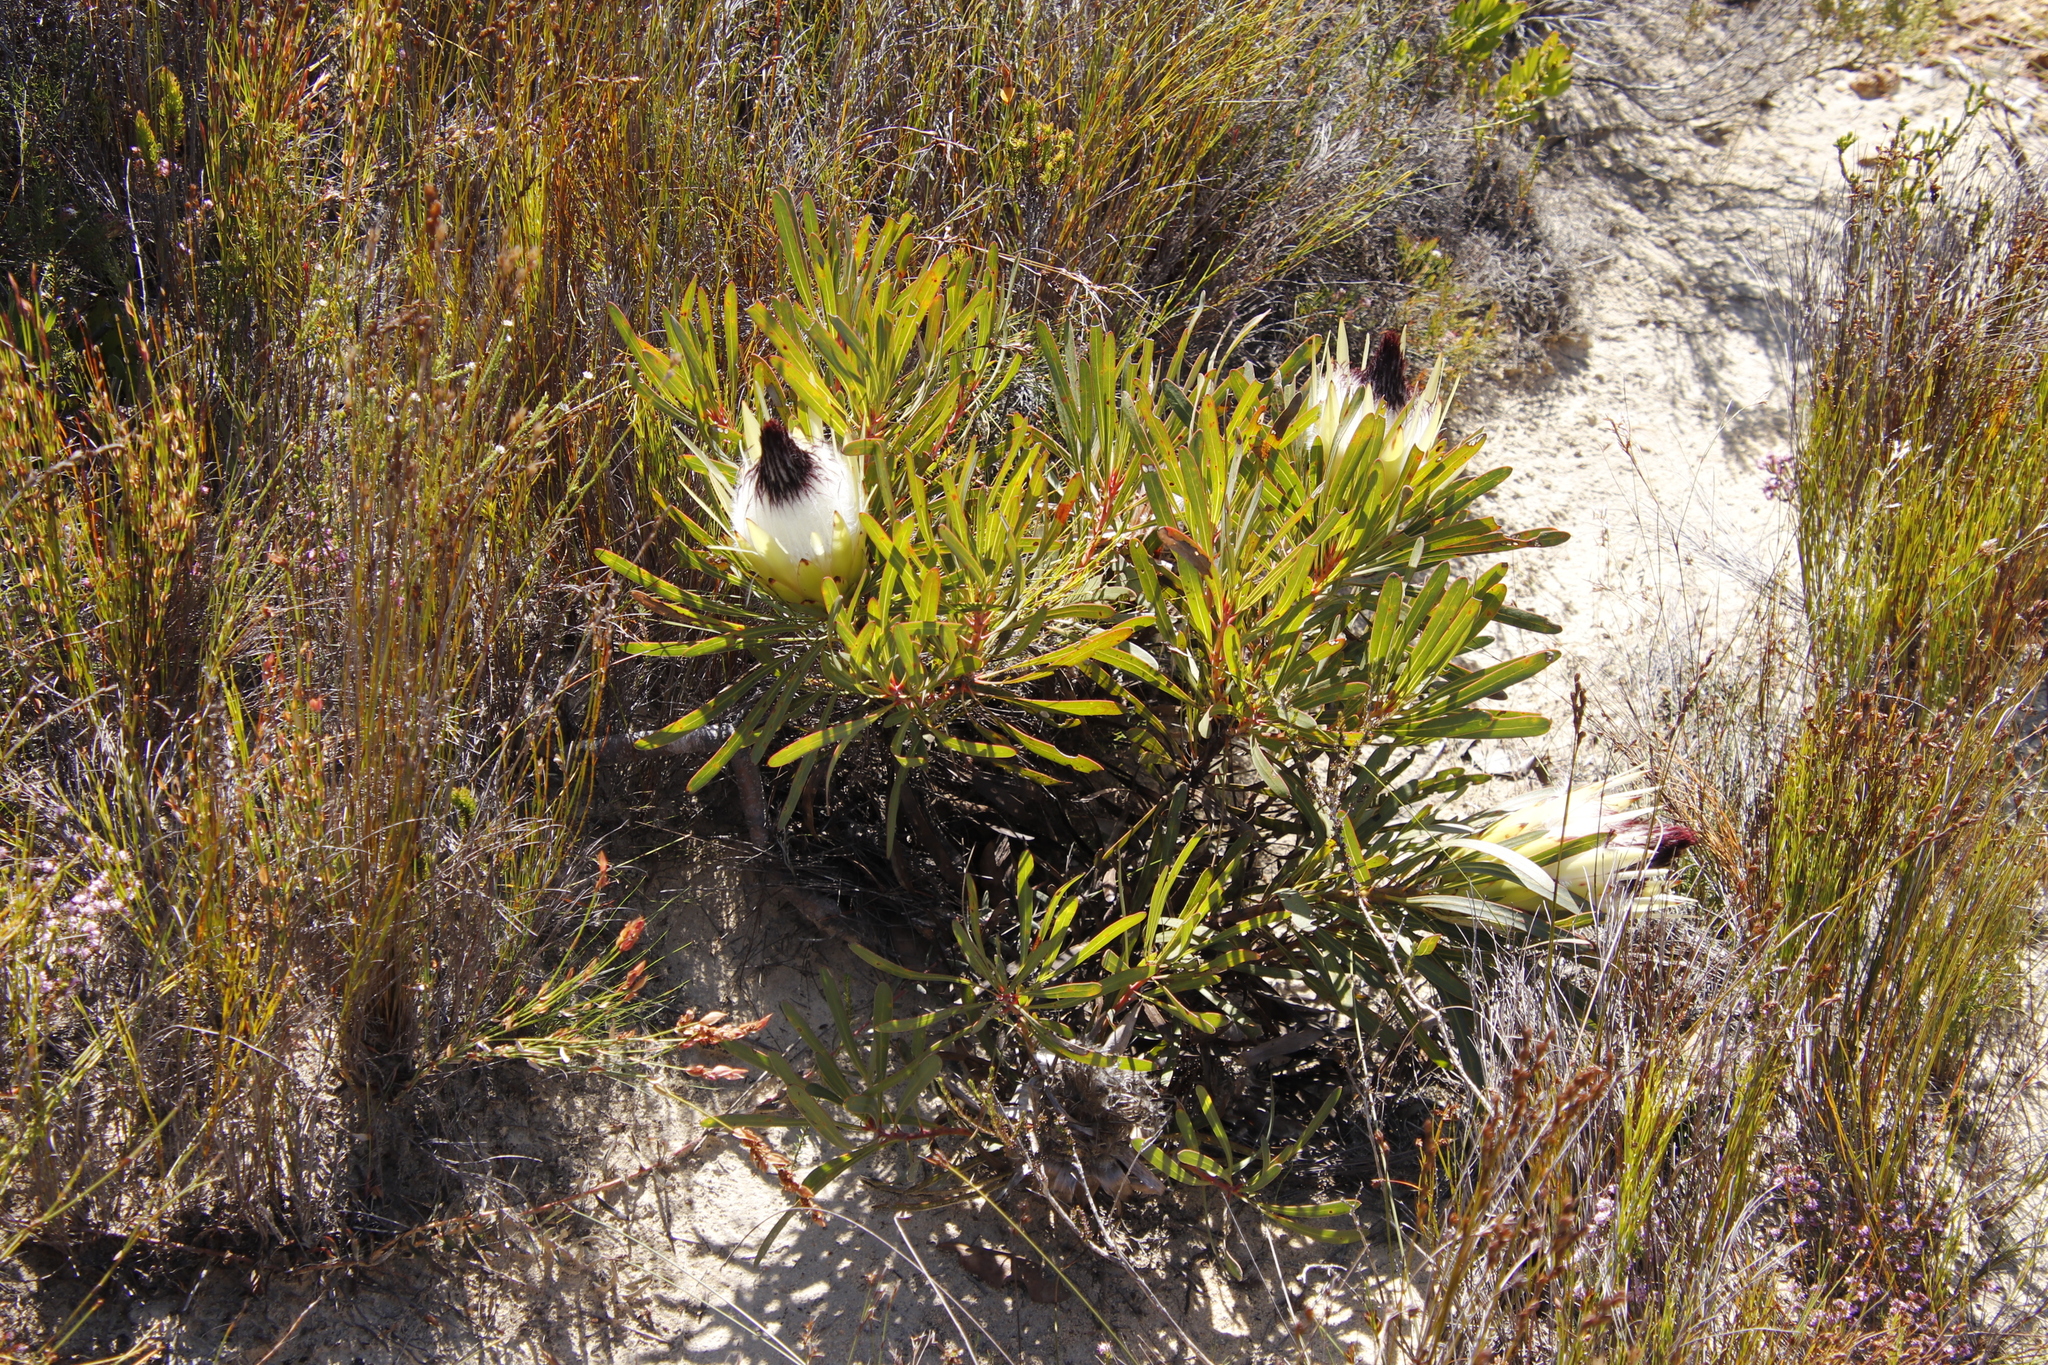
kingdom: Plantae
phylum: Tracheophyta
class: Magnoliopsida
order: Proteales
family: Proteaceae
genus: Protea
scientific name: Protea longifolia
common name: Long-leaf sugarbush
